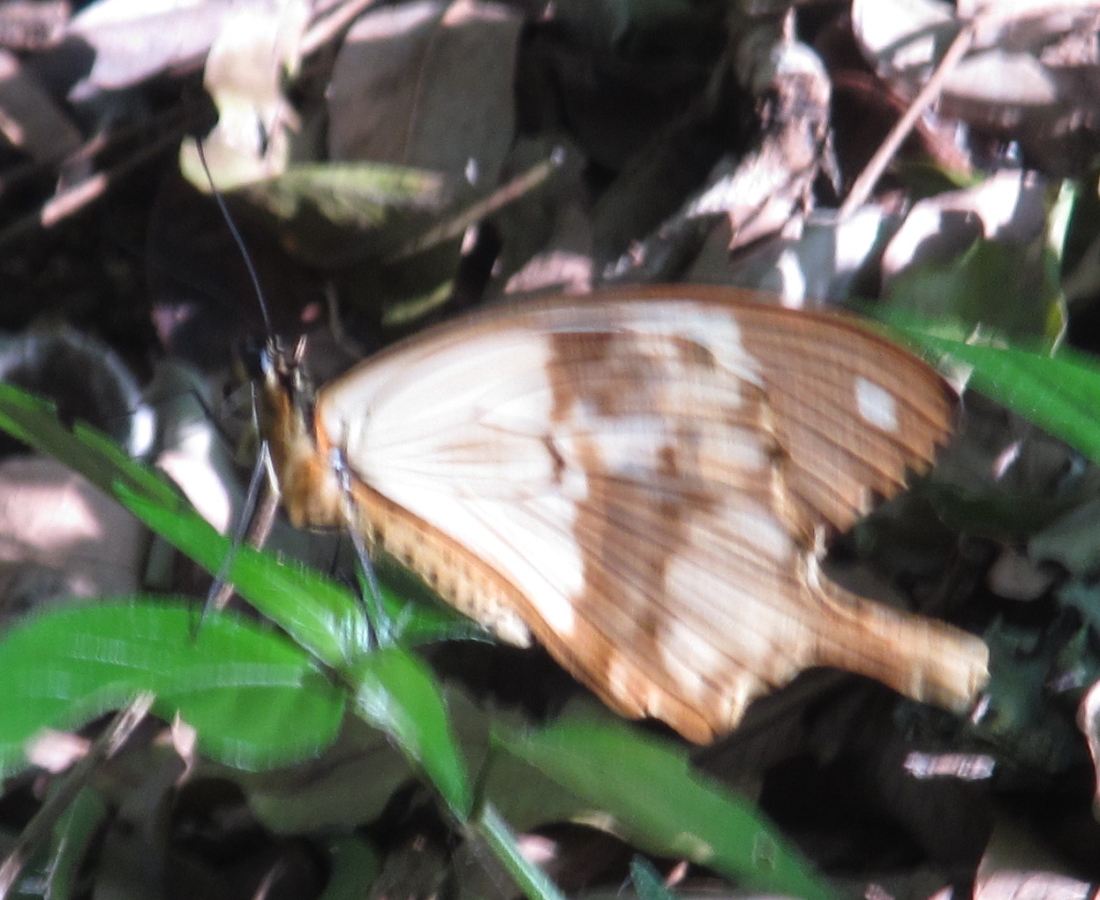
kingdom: Animalia
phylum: Arthropoda
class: Insecta
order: Lepidoptera
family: Papilionidae
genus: Papilio
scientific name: Papilio dardanus
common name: Flying handkerchief
